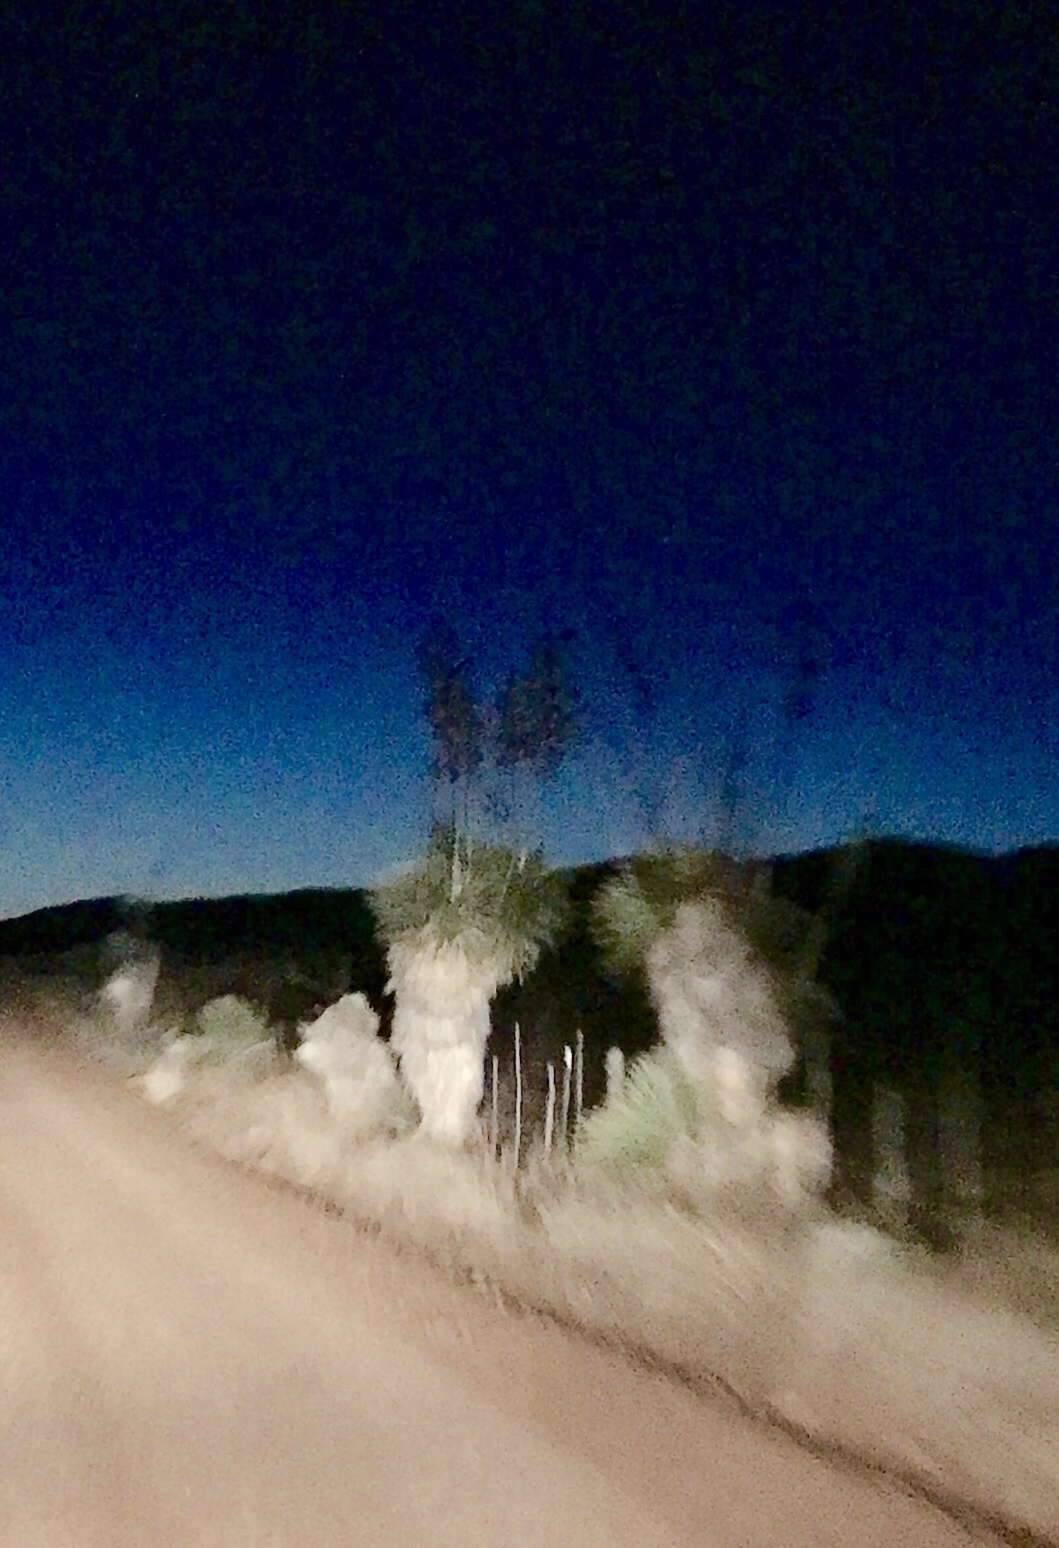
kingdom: Plantae
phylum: Tracheophyta
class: Liliopsida
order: Asparagales
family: Asparagaceae
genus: Yucca
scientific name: Yucca elata
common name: Palmella
